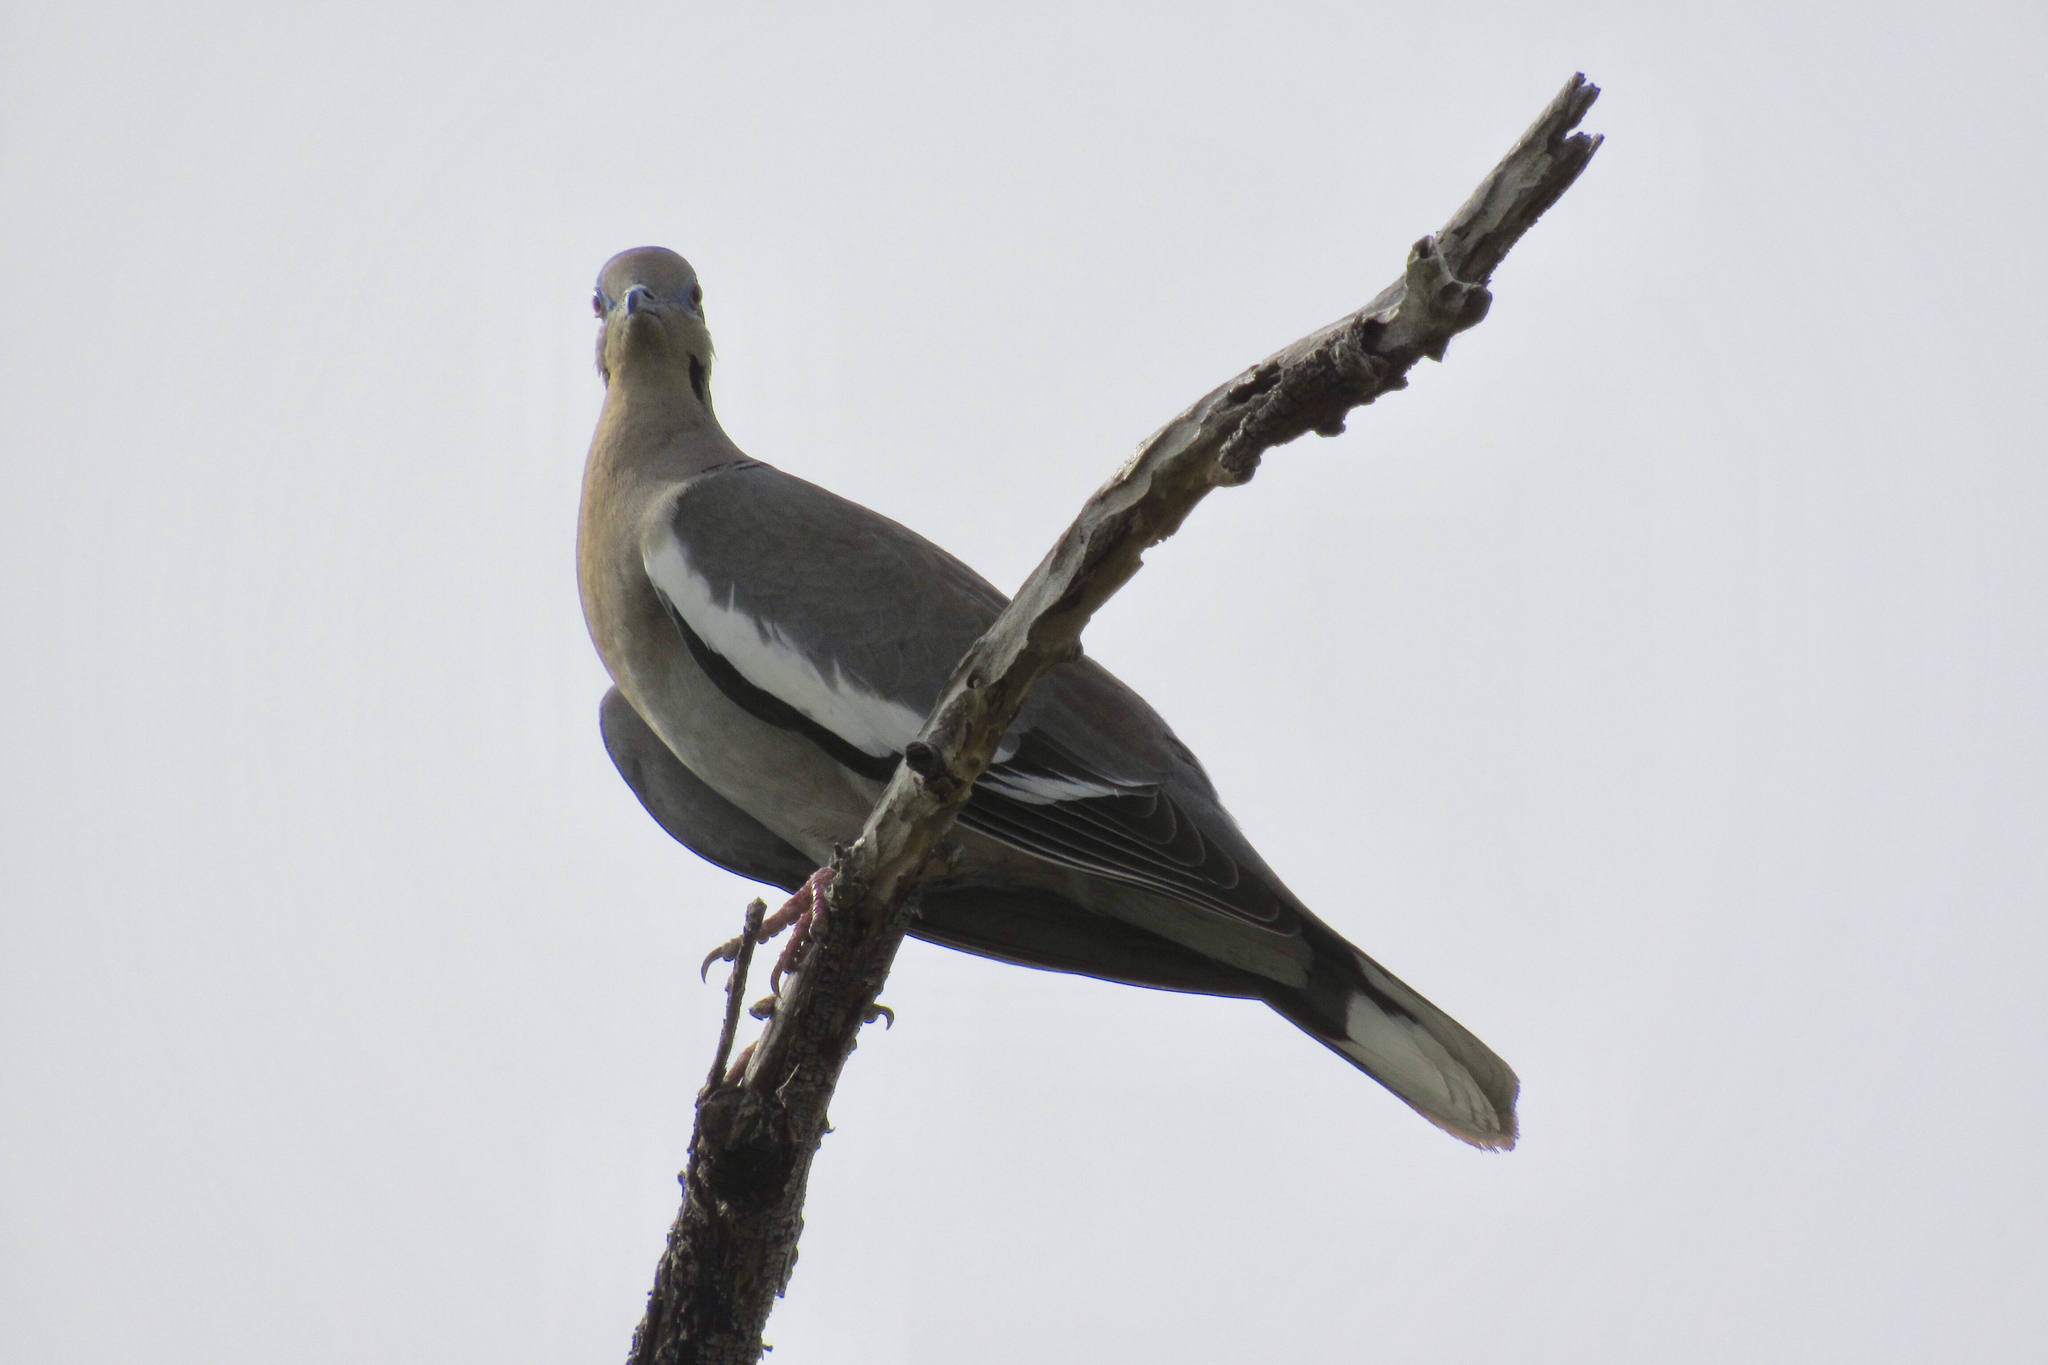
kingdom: Animalia
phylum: Chordata
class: Aves
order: Columbiformes
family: Columbidae
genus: Zenaida
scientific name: Zenaida asiatica
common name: White-winged dove
